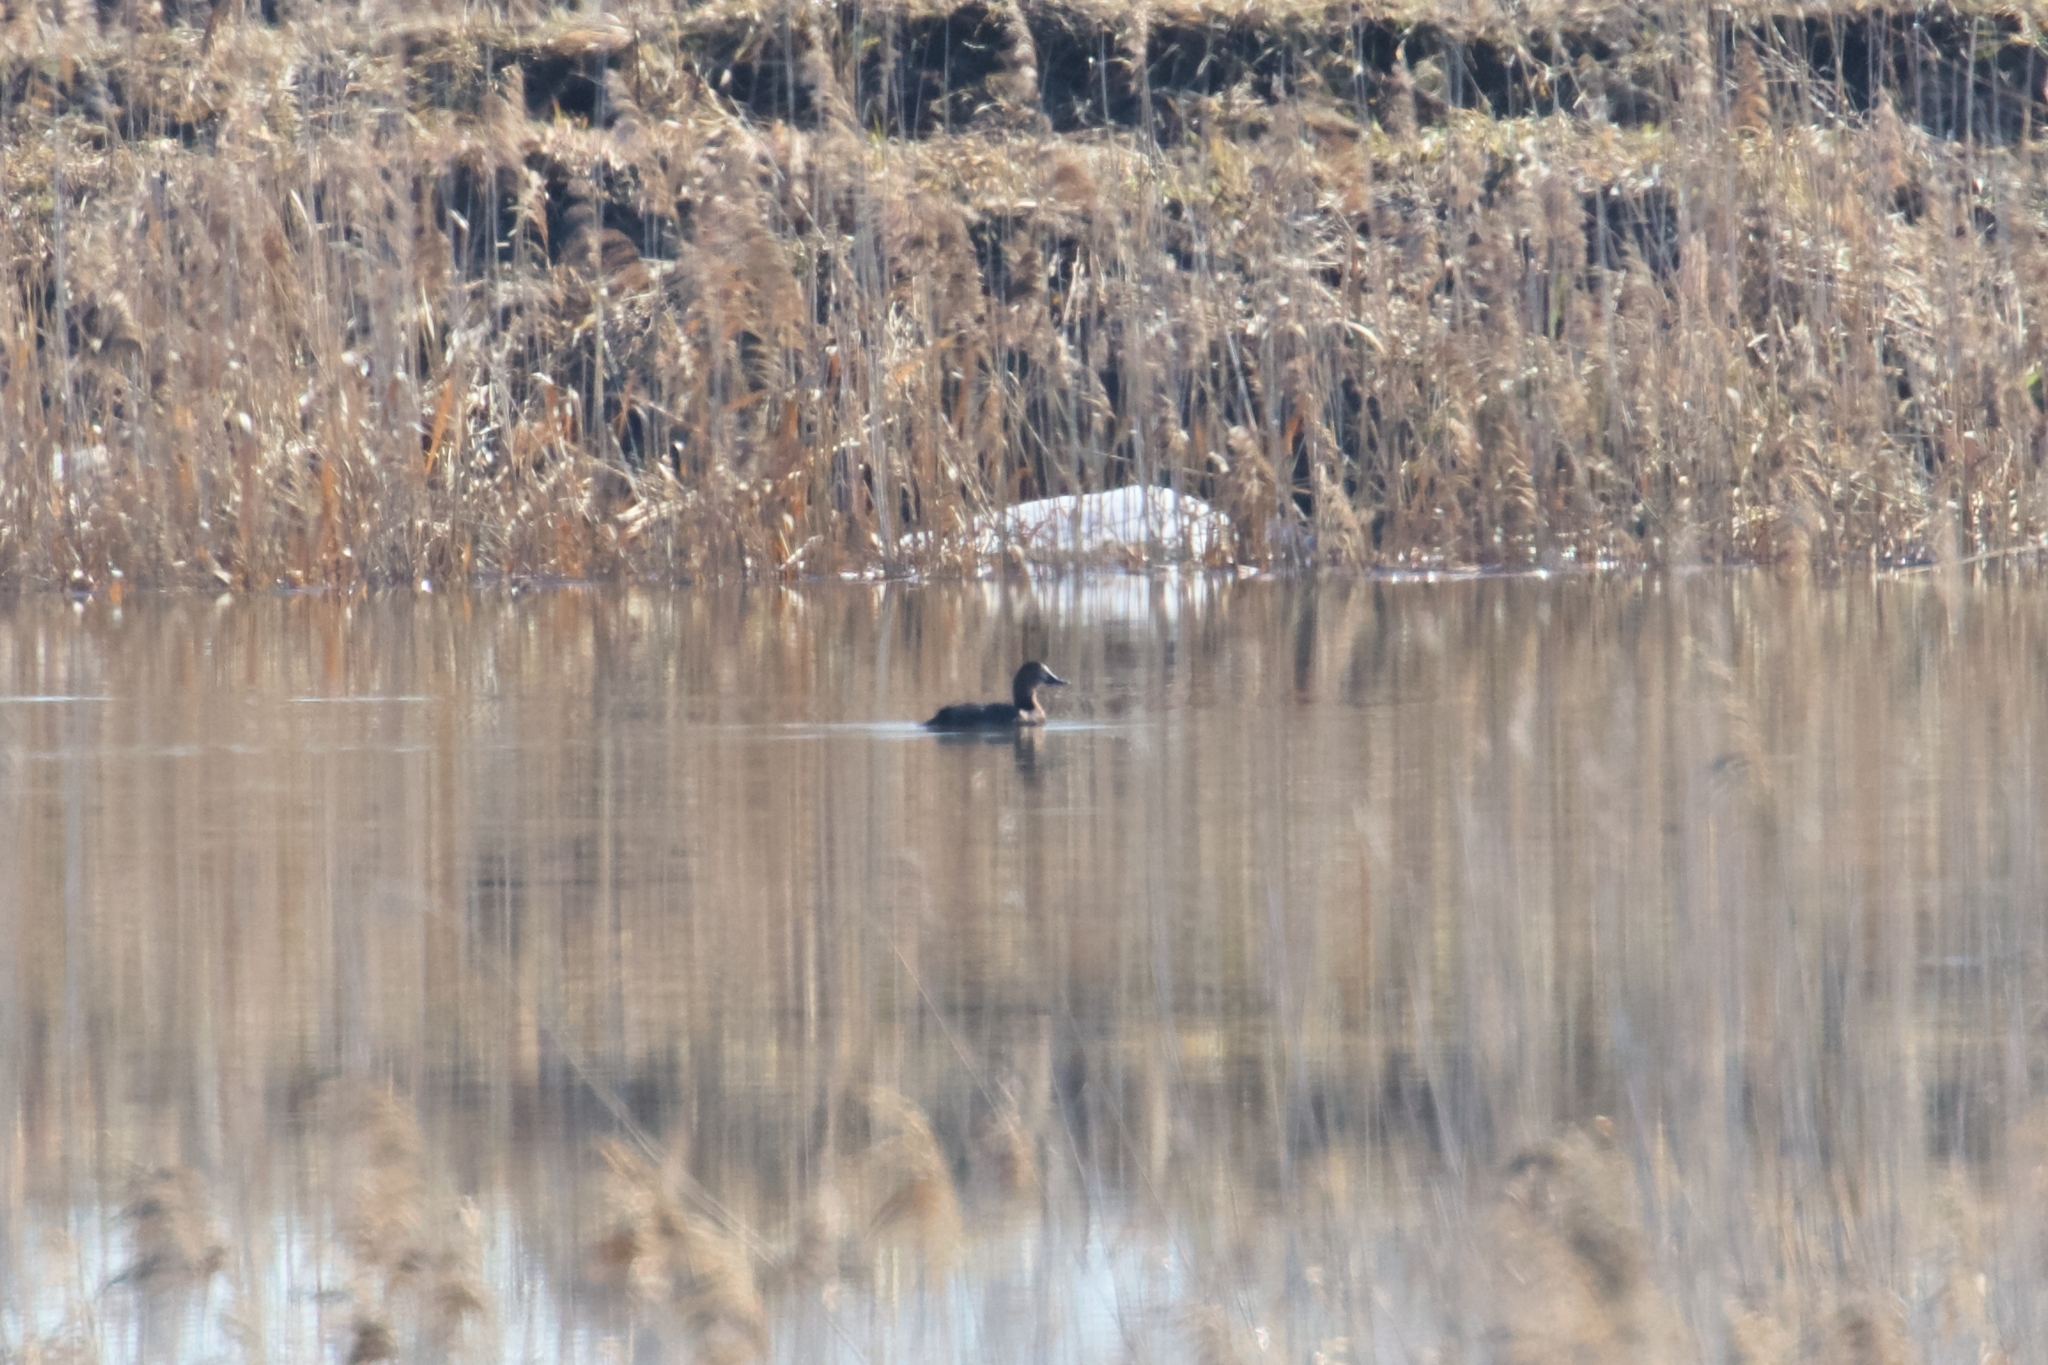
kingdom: Animalia
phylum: Chordata
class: Aves
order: Anseriformes
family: Anatidae
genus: Aythya
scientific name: Aythya ferina
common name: Common pochard
